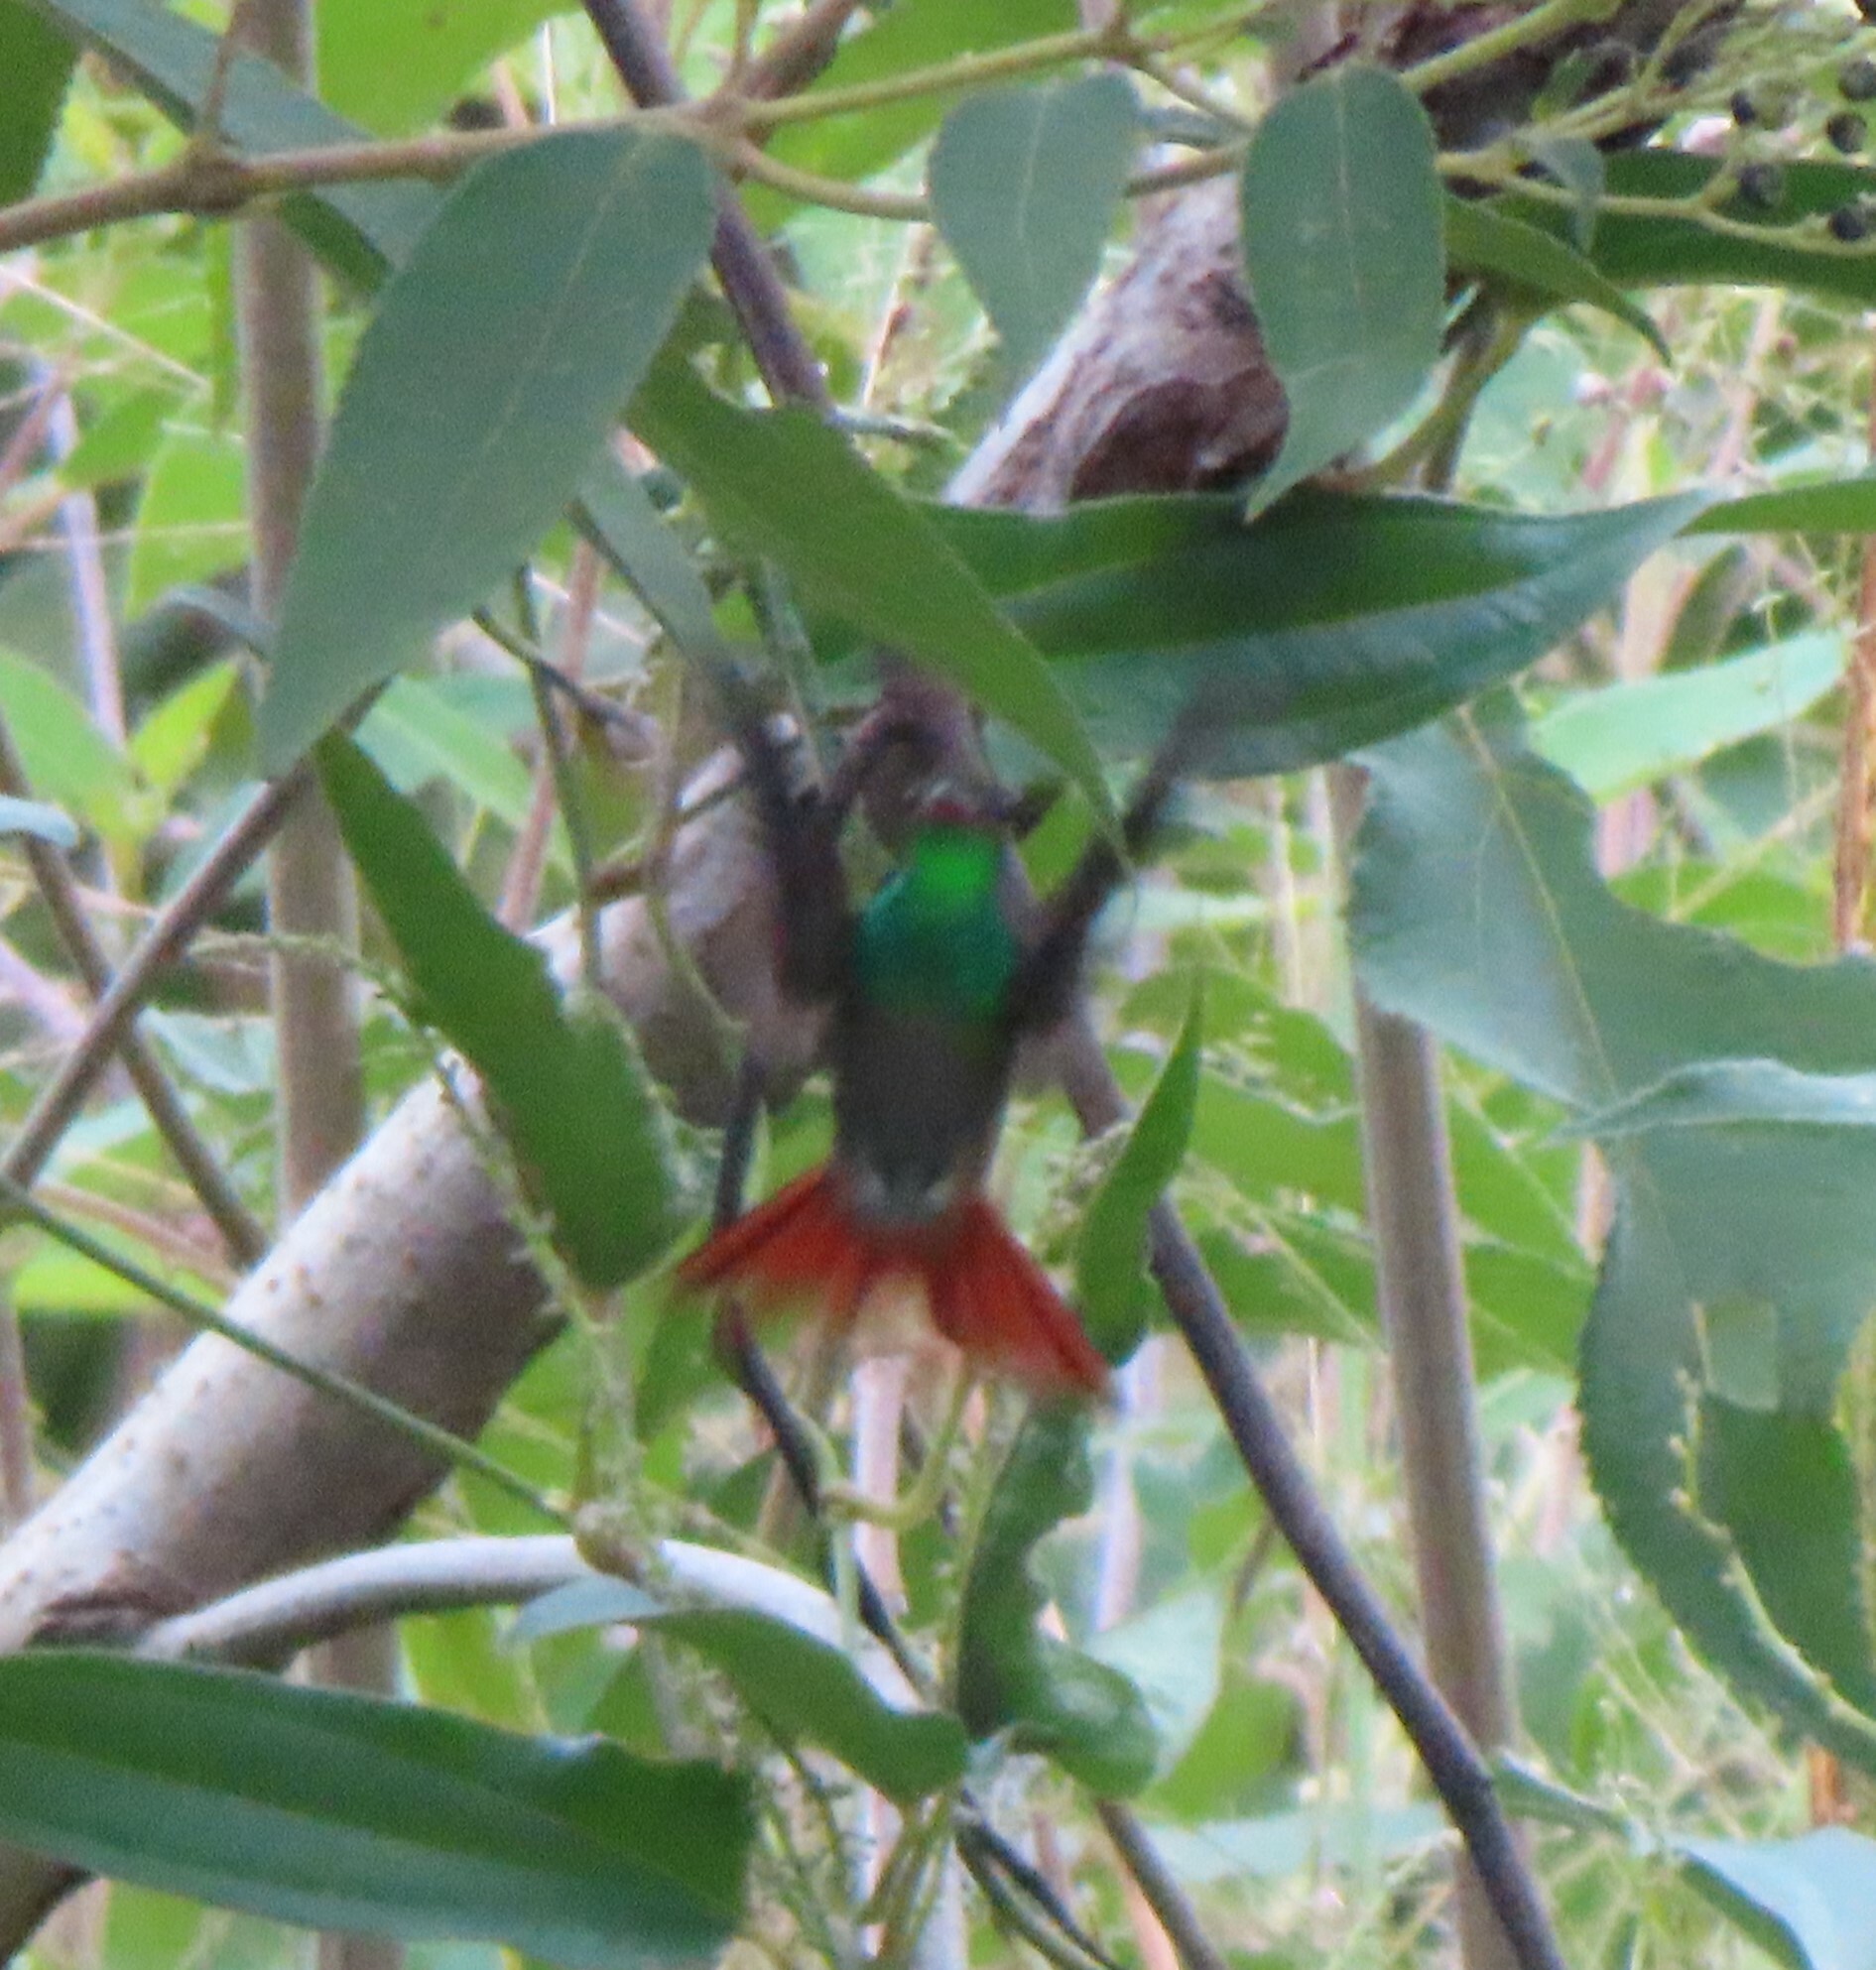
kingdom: Animalia
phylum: Chordata
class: Aves
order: Apodiformes
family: Trochilidae
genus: Amazilia
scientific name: Amazilia tzacatl
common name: Rufous-tailed hummingbird
